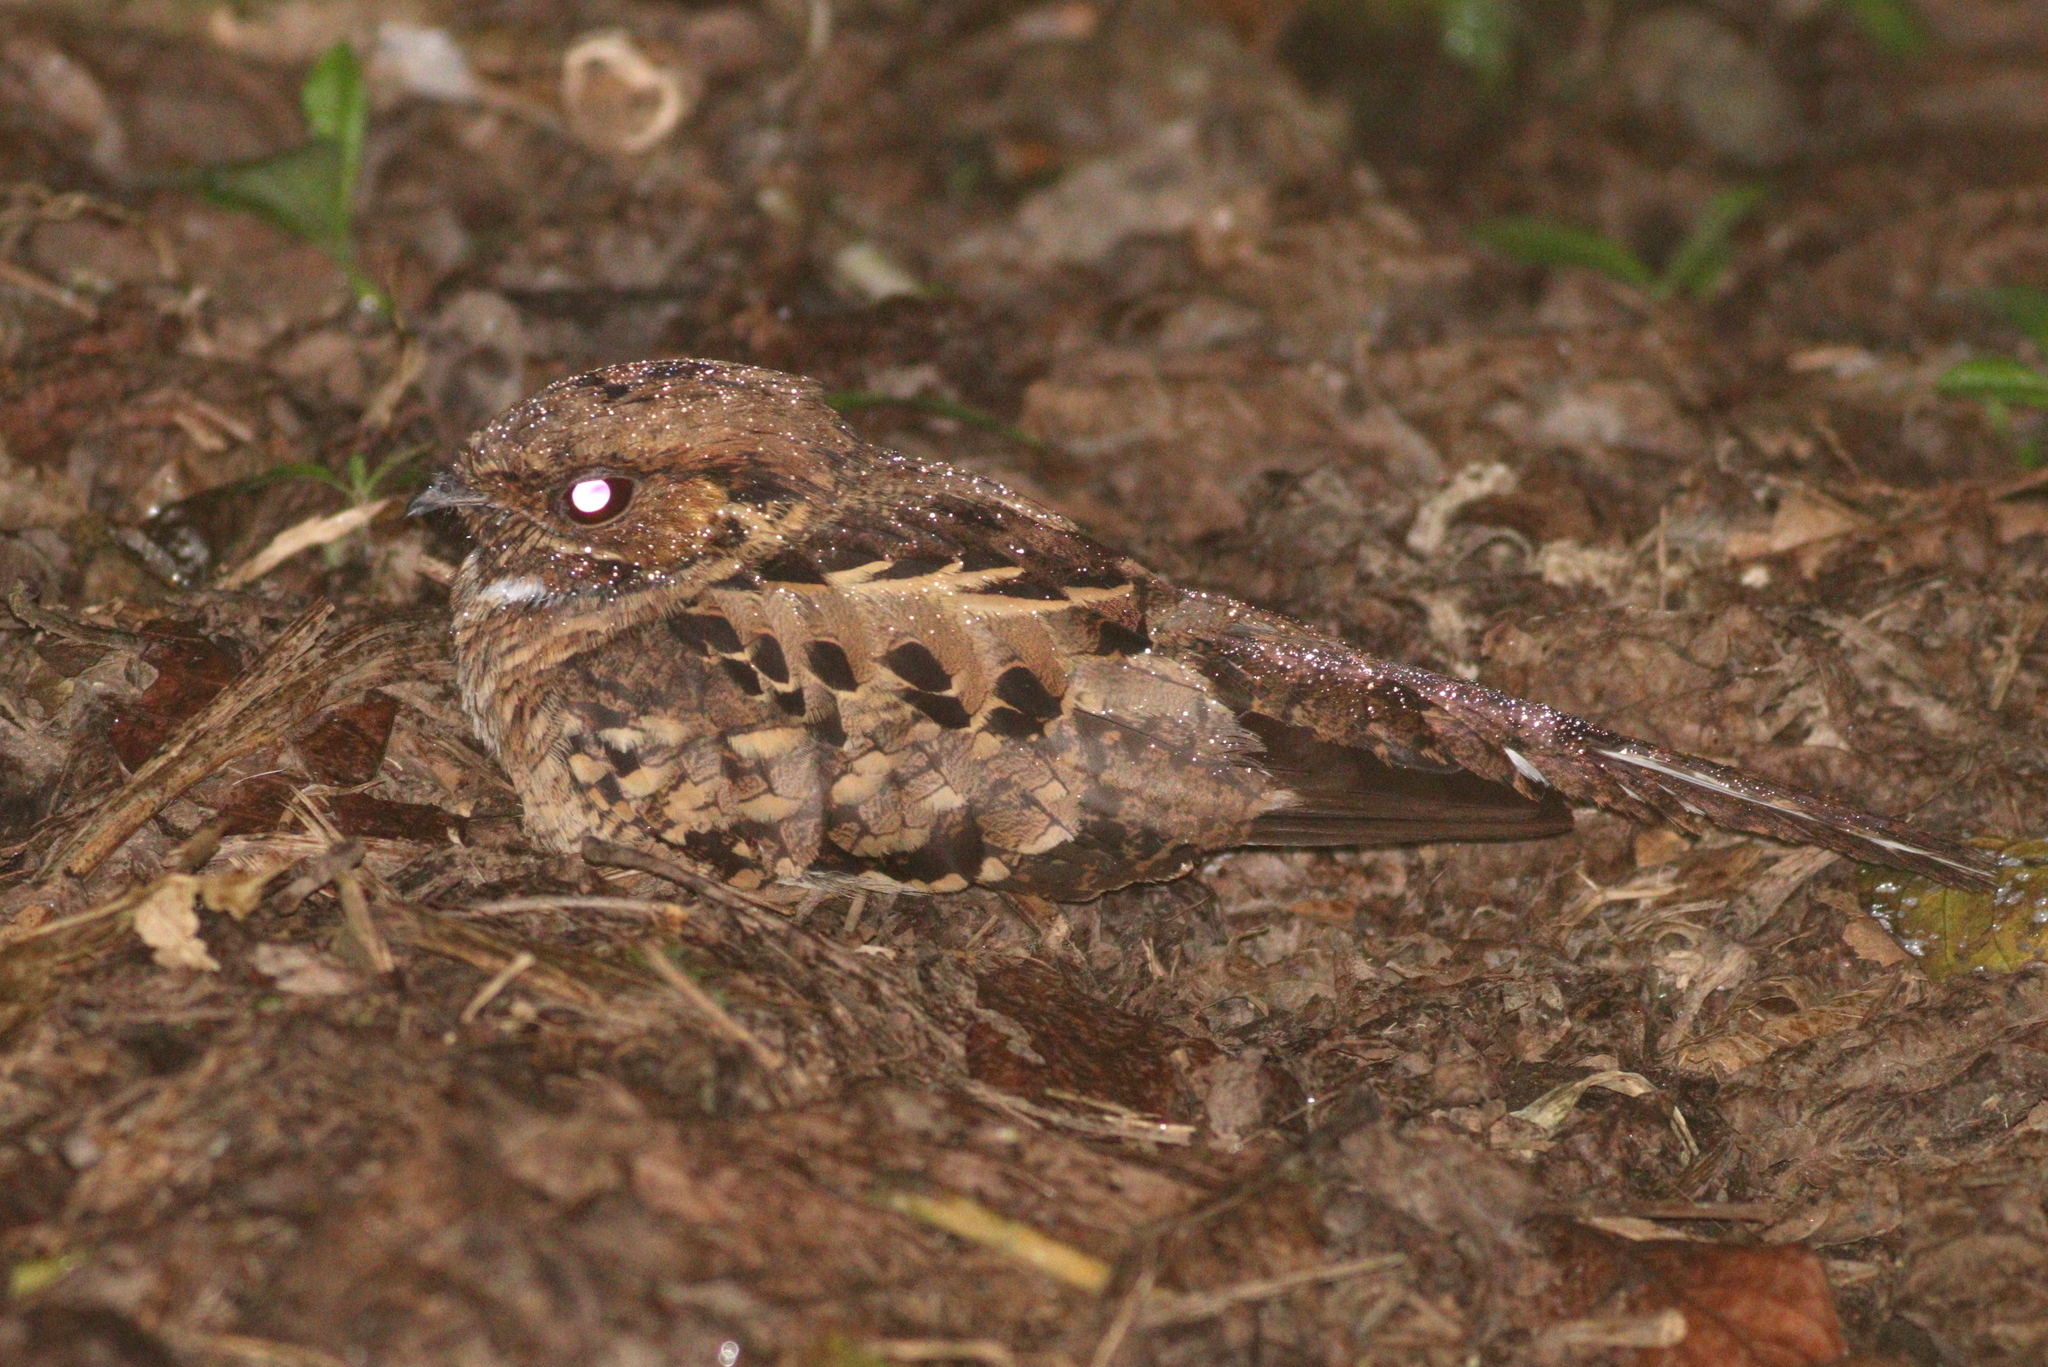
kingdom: Animalia
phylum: Chordata
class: Aves
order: Caprimulgiformes
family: Caprimulgidae
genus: Nyctidromus
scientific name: Nyctidromus albicollis
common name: Pauraque
